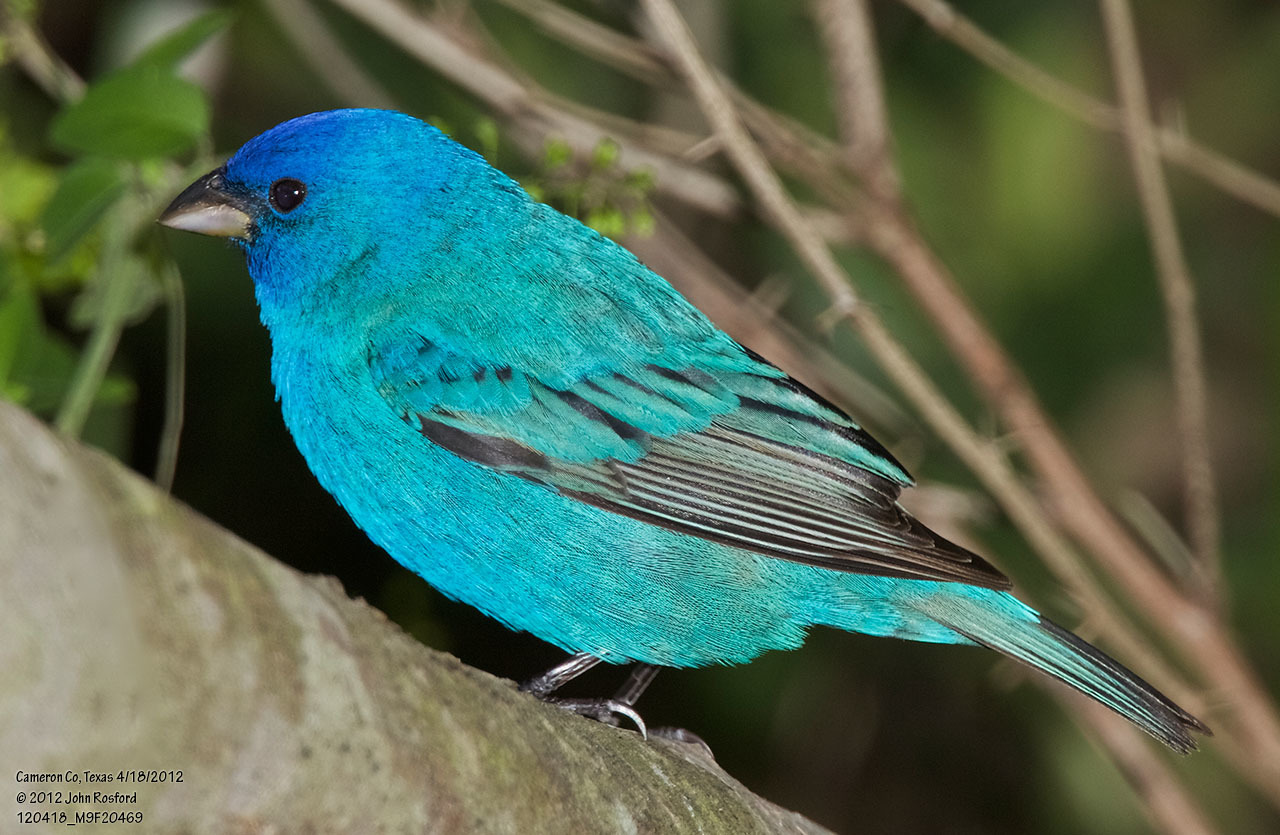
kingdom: Animalia
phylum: Chordata
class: Aves
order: Passeriformes
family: Cardinalidae
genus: Passerina
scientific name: Passerina cyanea
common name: Indigo bunting
